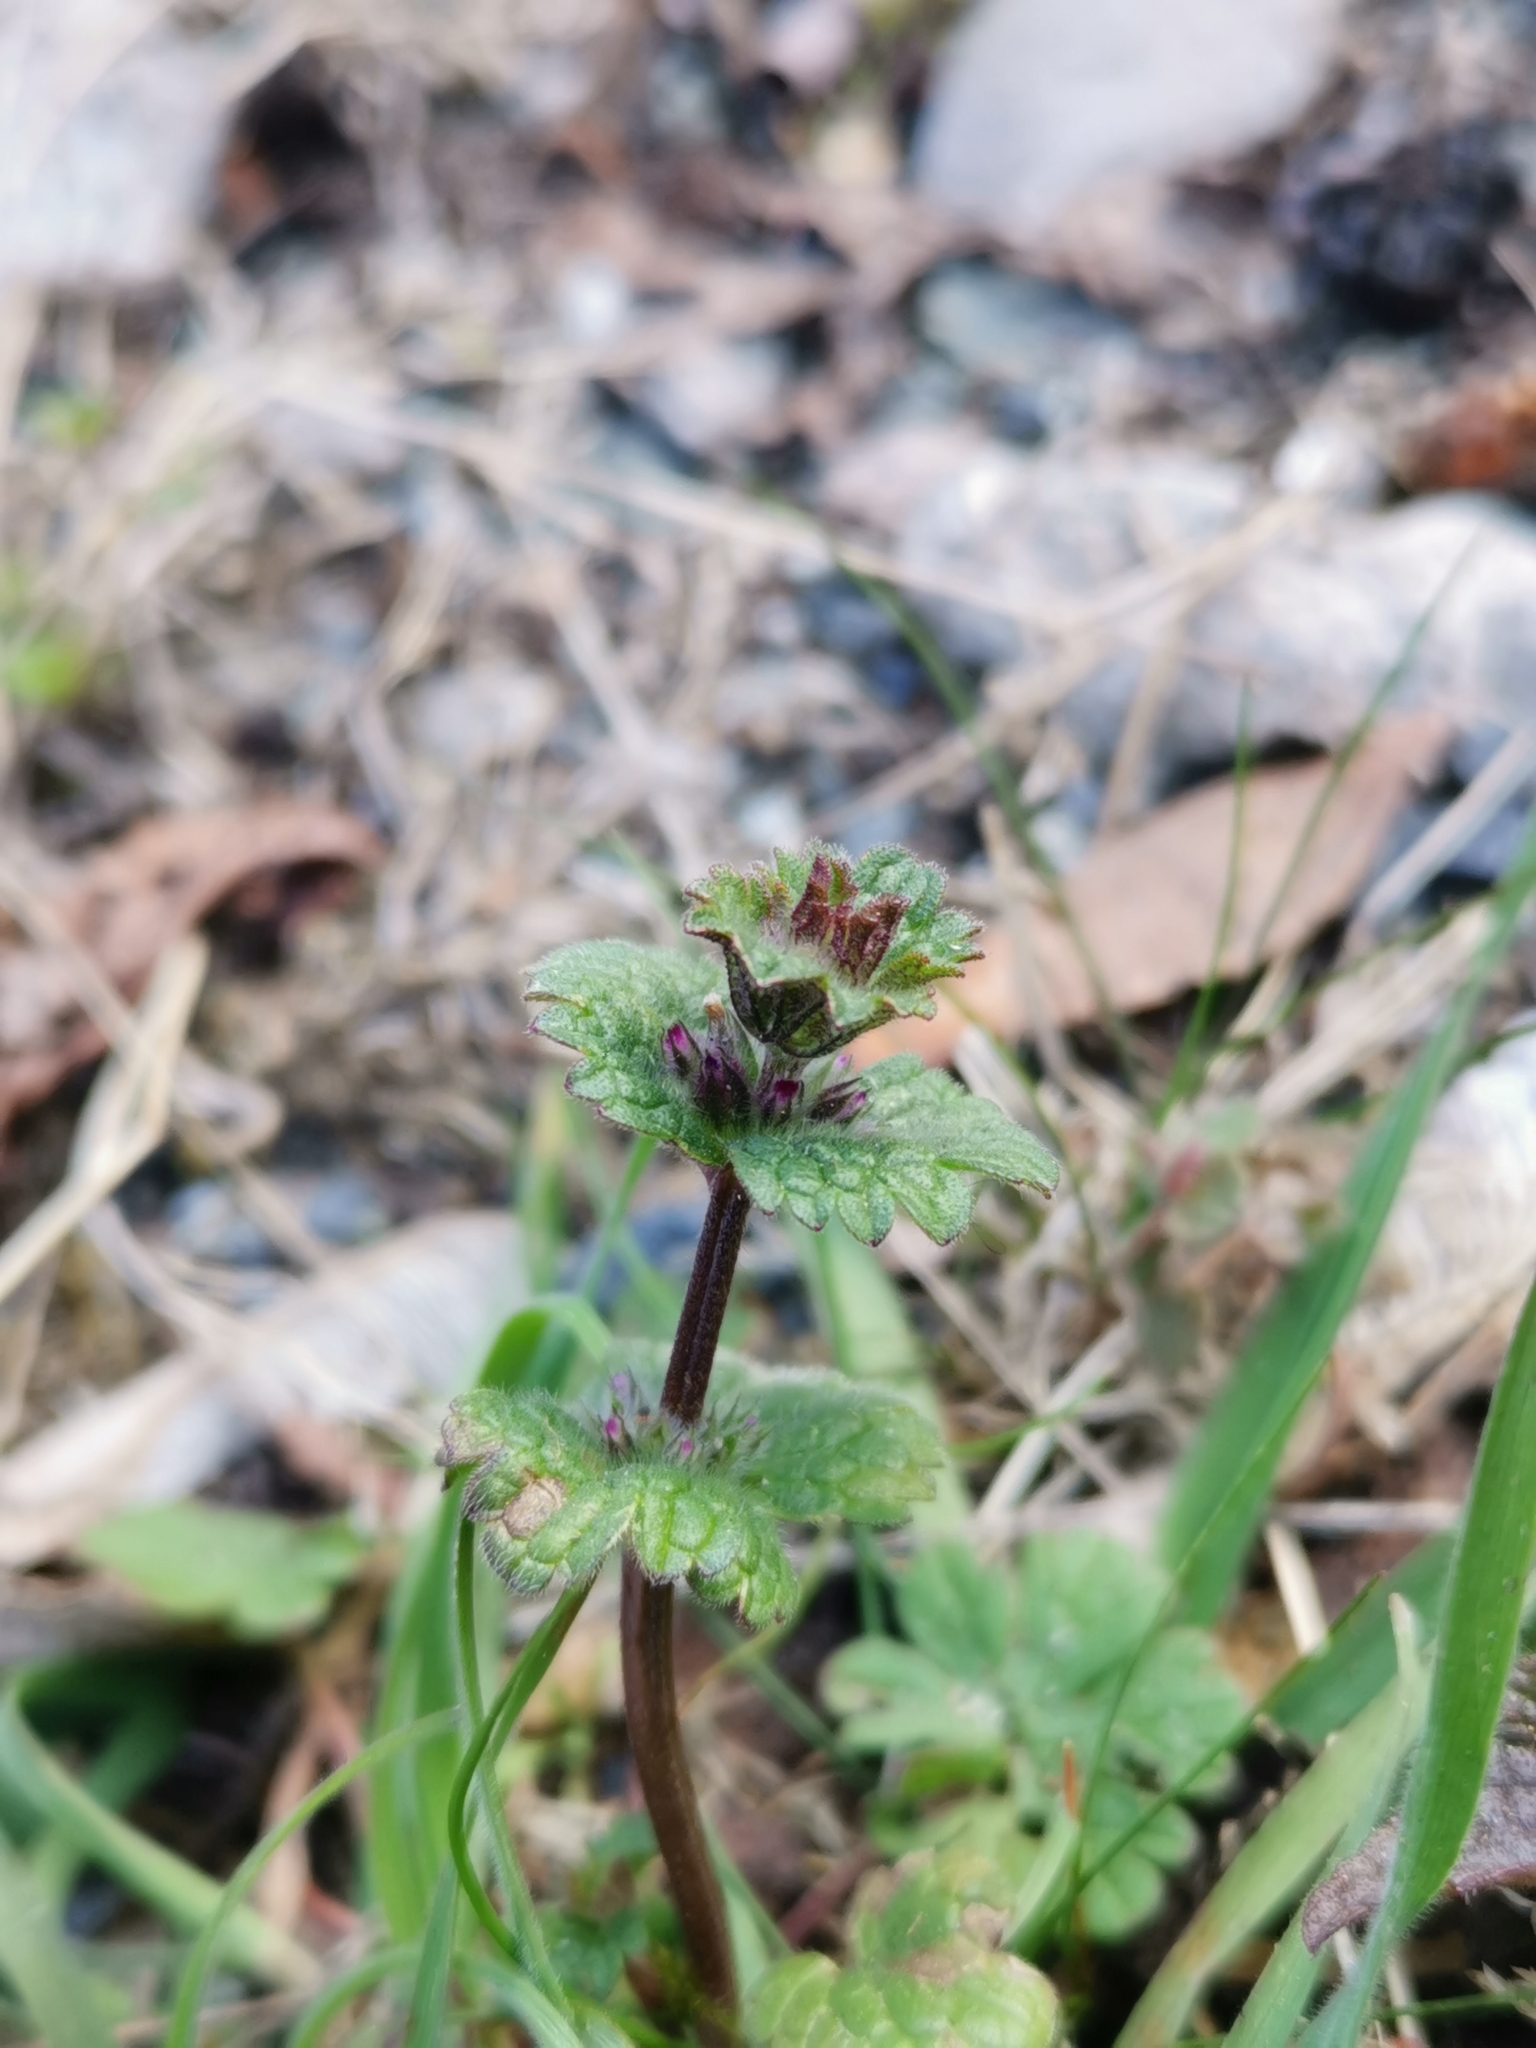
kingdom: Plantae
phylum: Tracheophyta
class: Magnoliopsida
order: Lamiales
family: Lamiaceae
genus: Lamium
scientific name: Lamium amplexicaule
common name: Henbit dead-nettle
